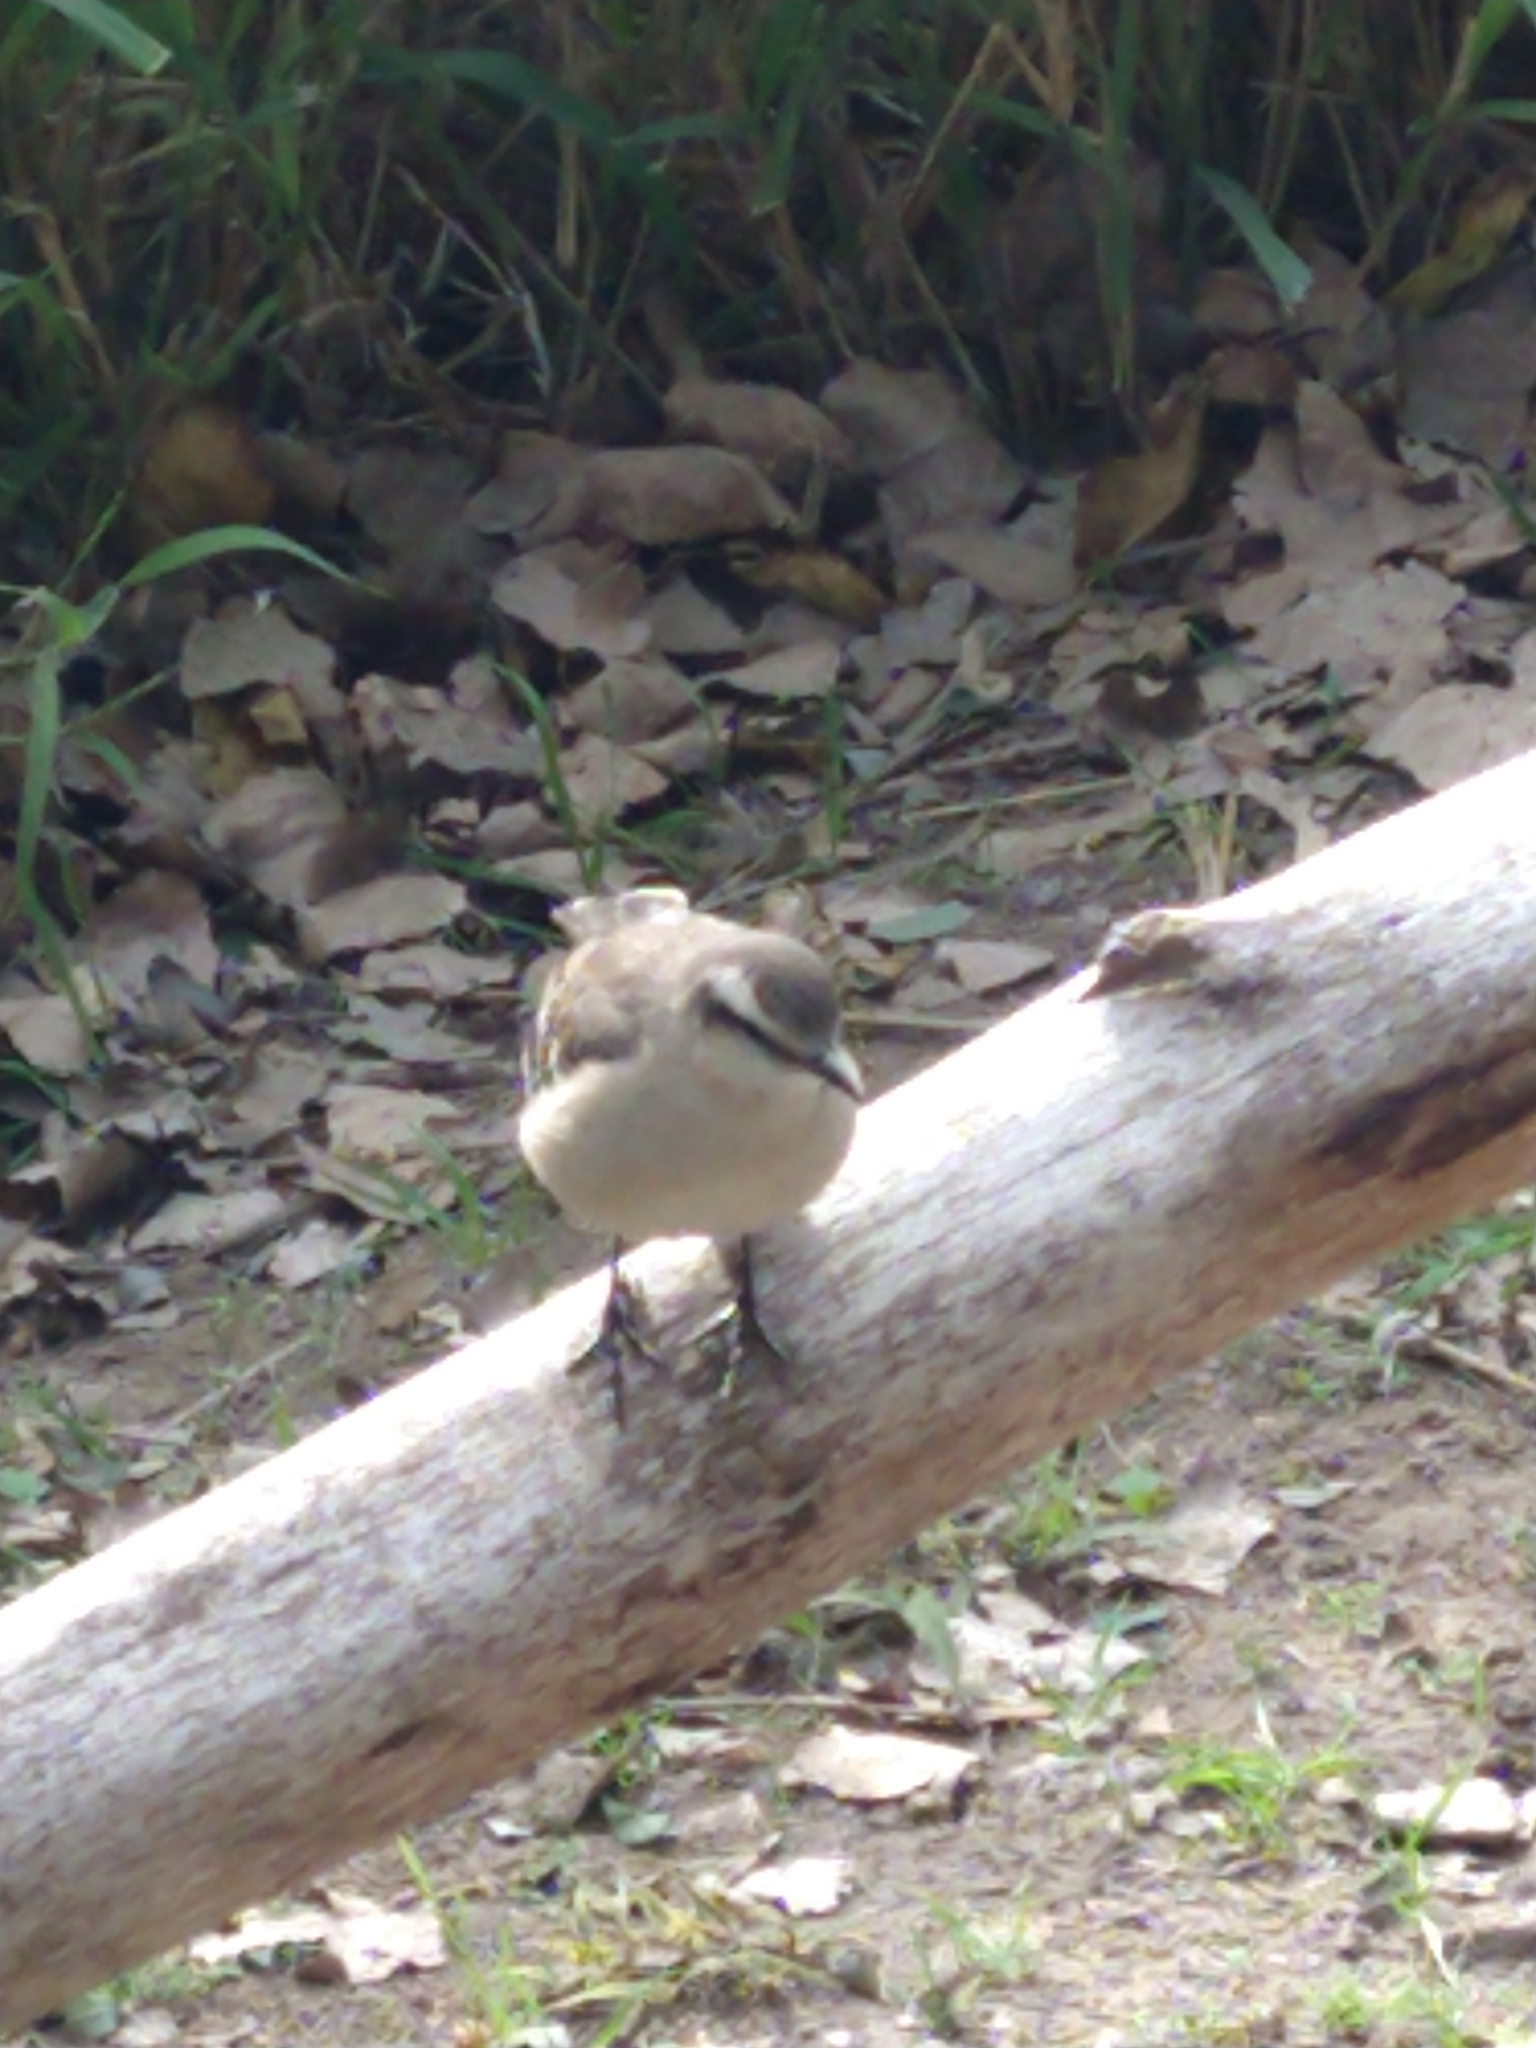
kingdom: Animalia
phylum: Chordata
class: Aves
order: Passeriformes
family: Mimidae
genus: Mimus
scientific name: Mimus saturninus
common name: Chalk-browed mockingbird
